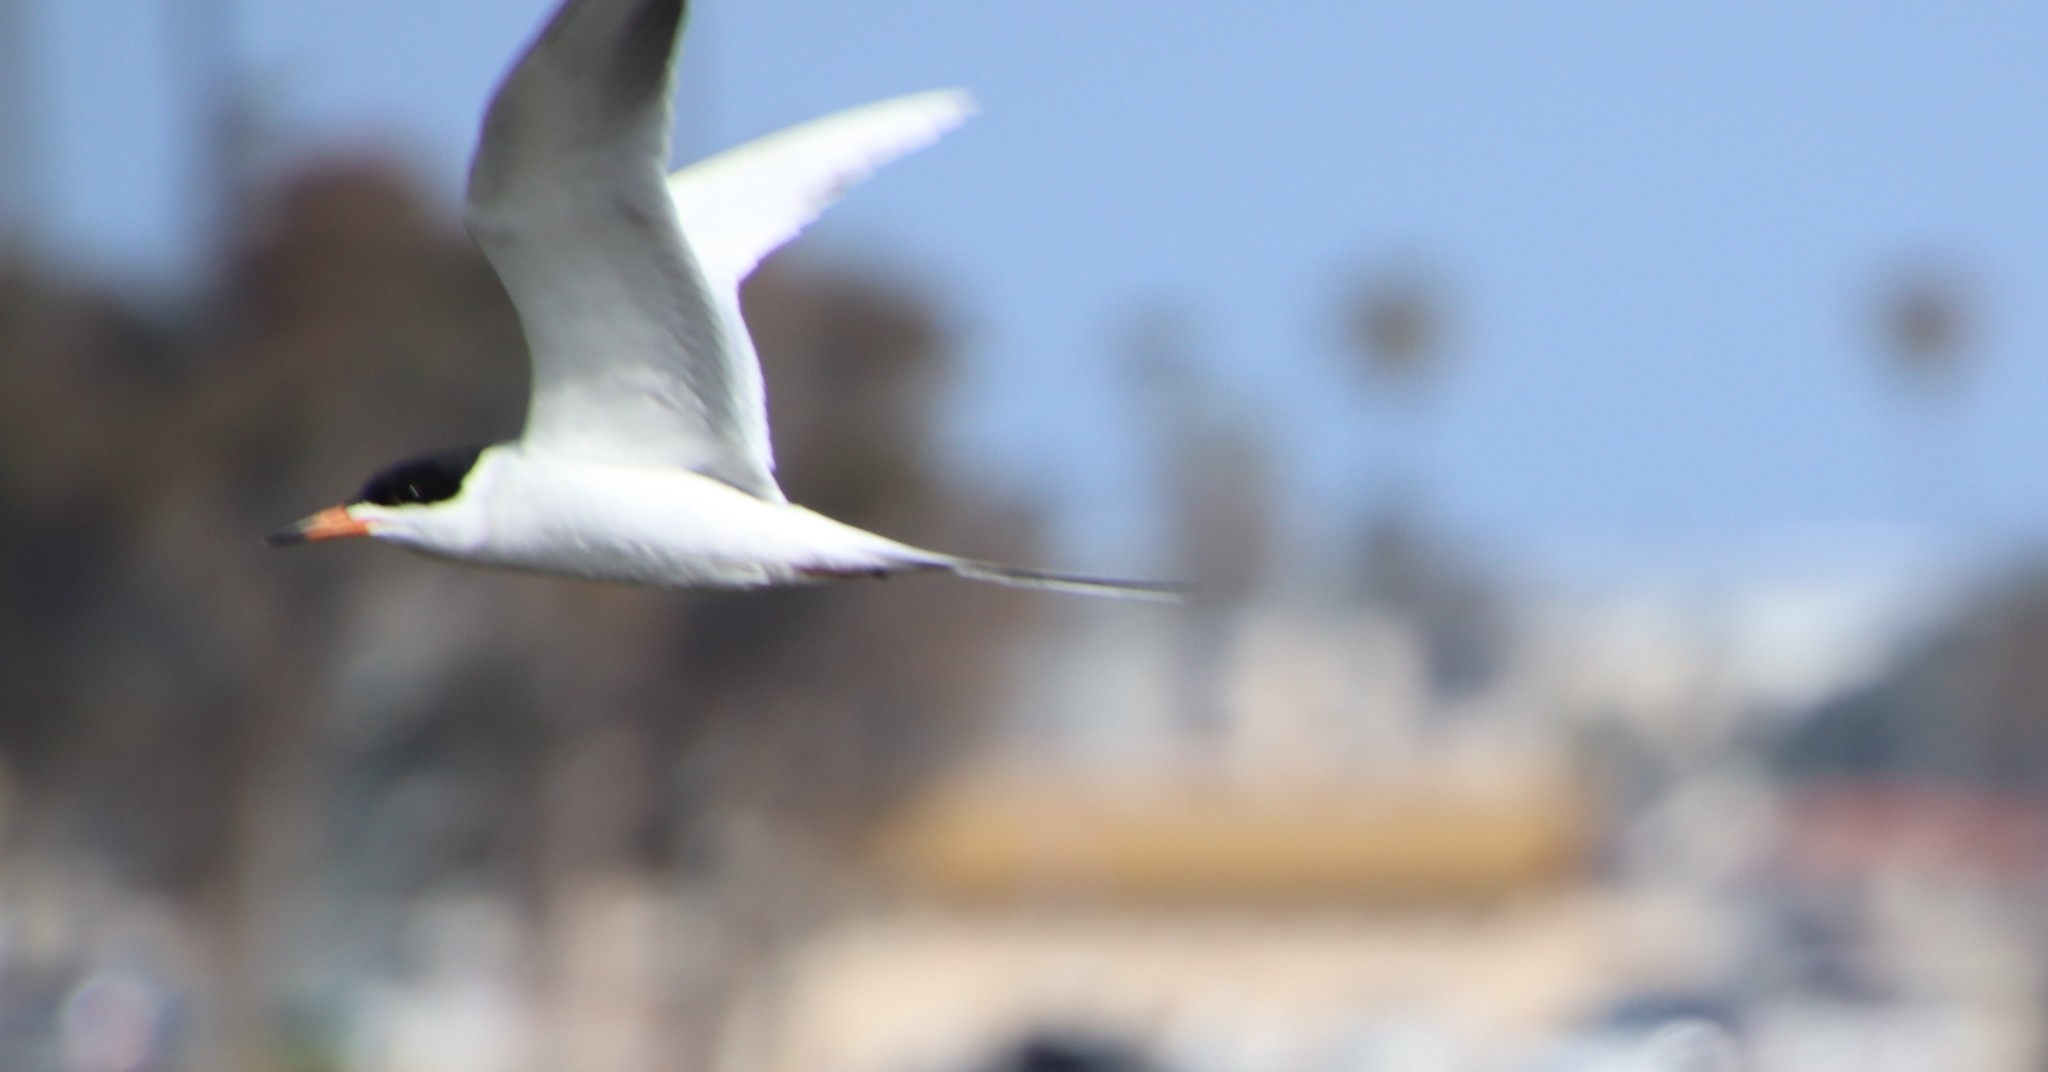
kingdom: Animalia
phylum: Chordata
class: Aves
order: Charadriiformes
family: Laridae
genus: Sterna
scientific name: Sterna forsteri
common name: Forster's tern
